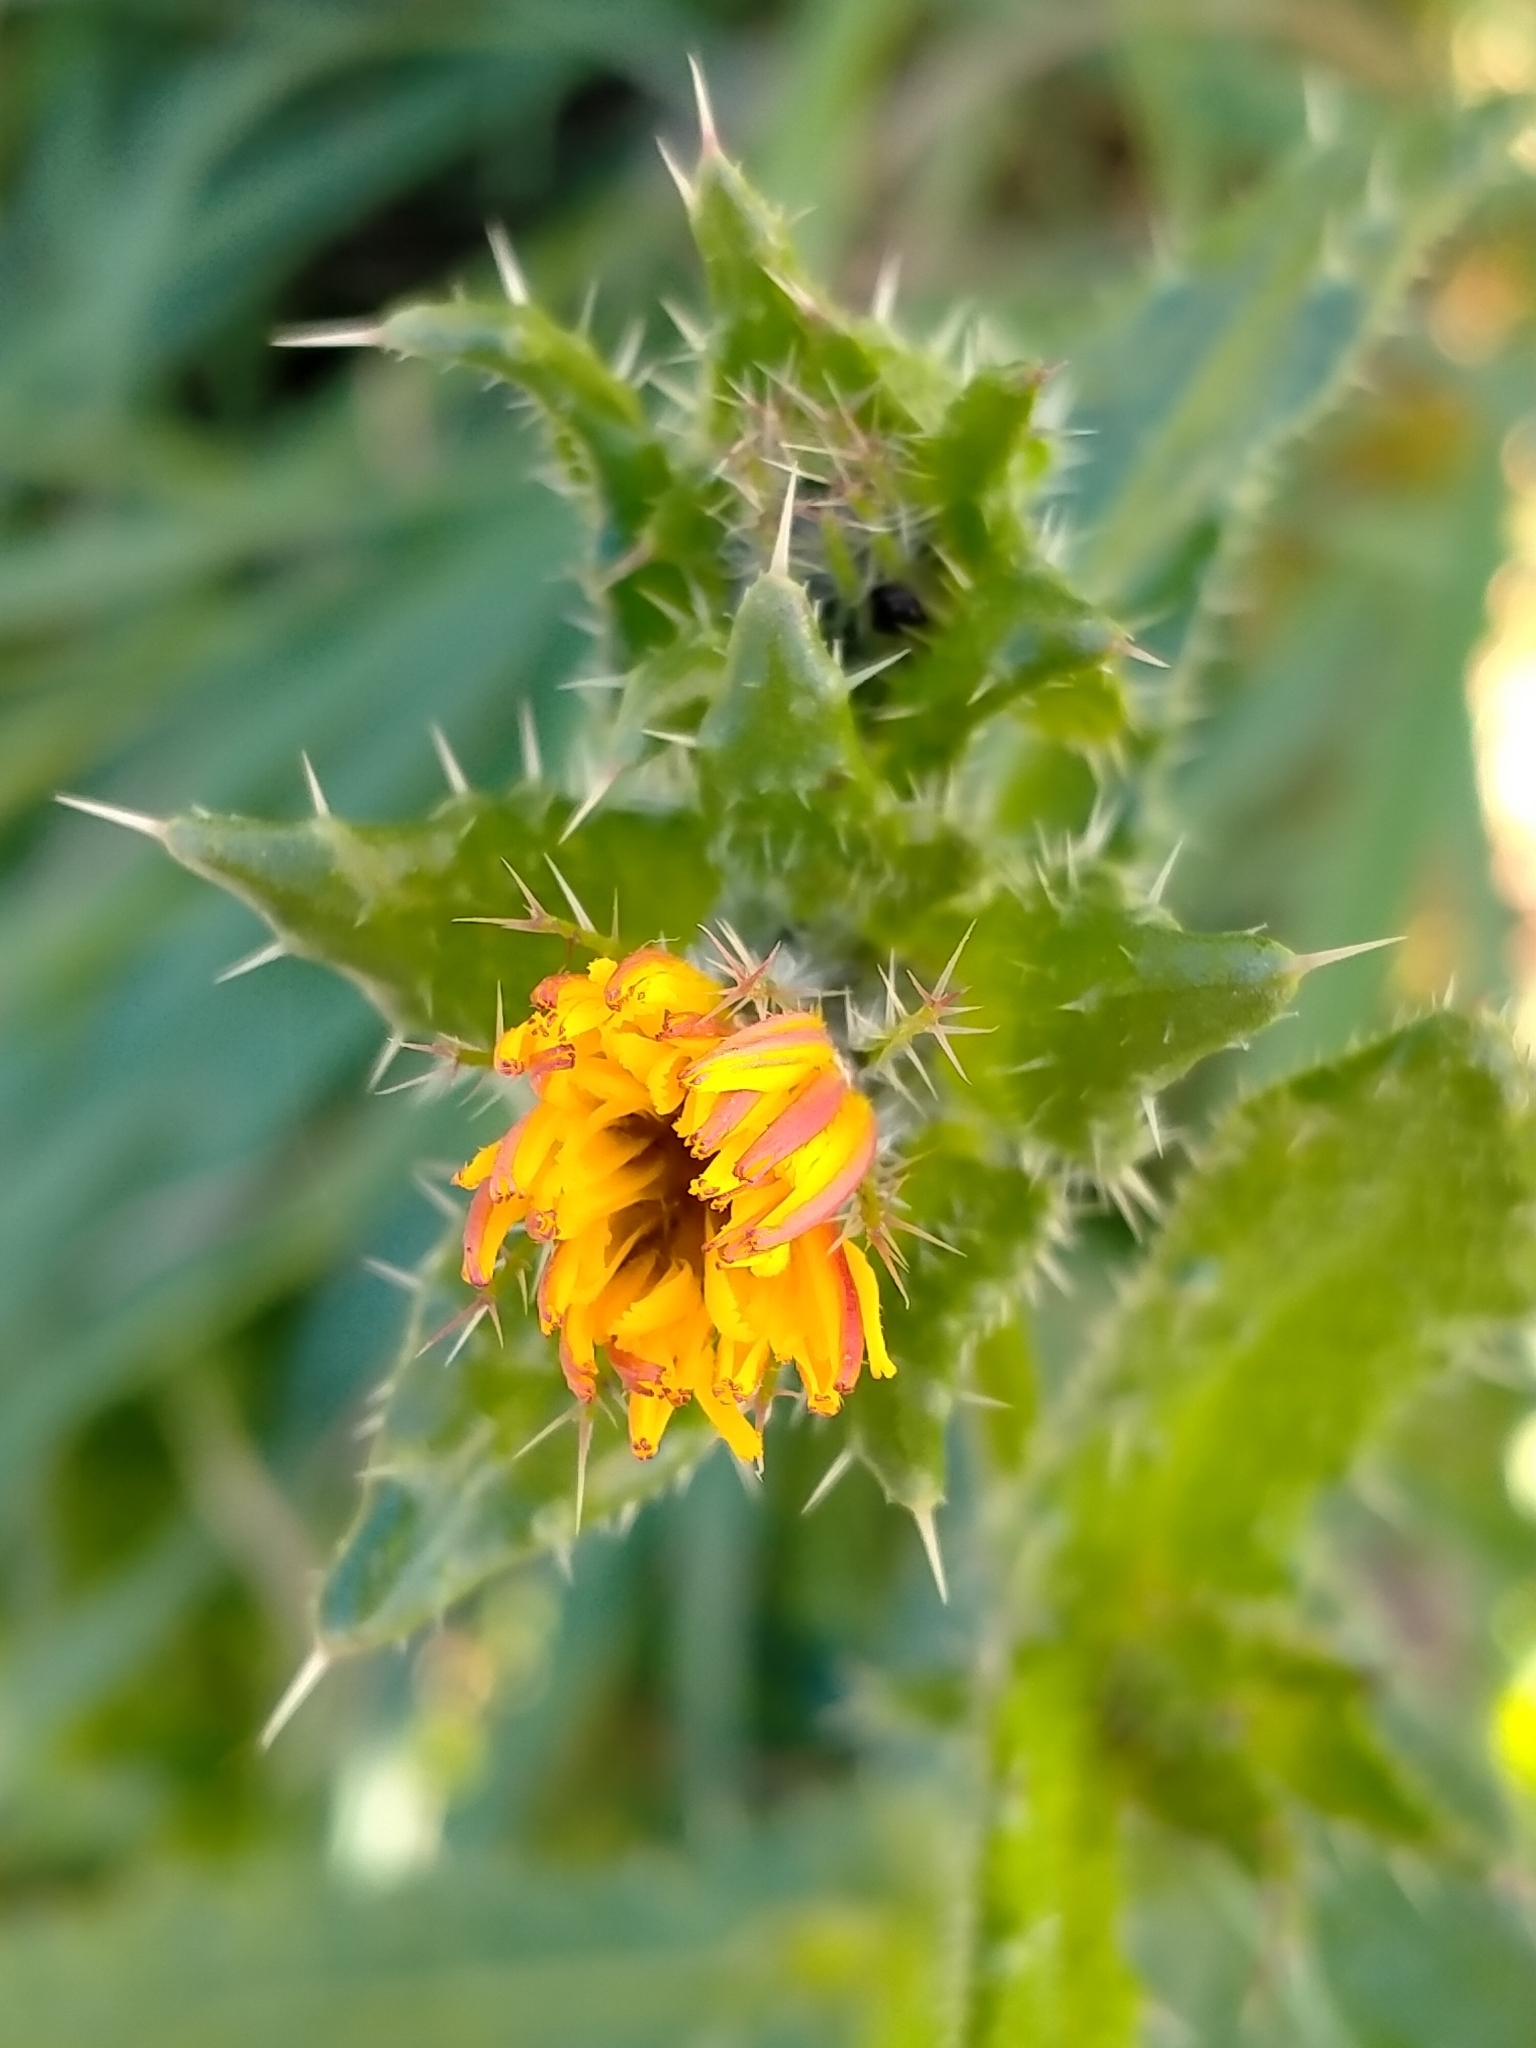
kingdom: Plantae
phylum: Tracheophyta
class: Magnoliopsida
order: Asterales
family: Asteraceae
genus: Helminthotheca
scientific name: Helminthotheca echioides
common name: Ox-tongue
